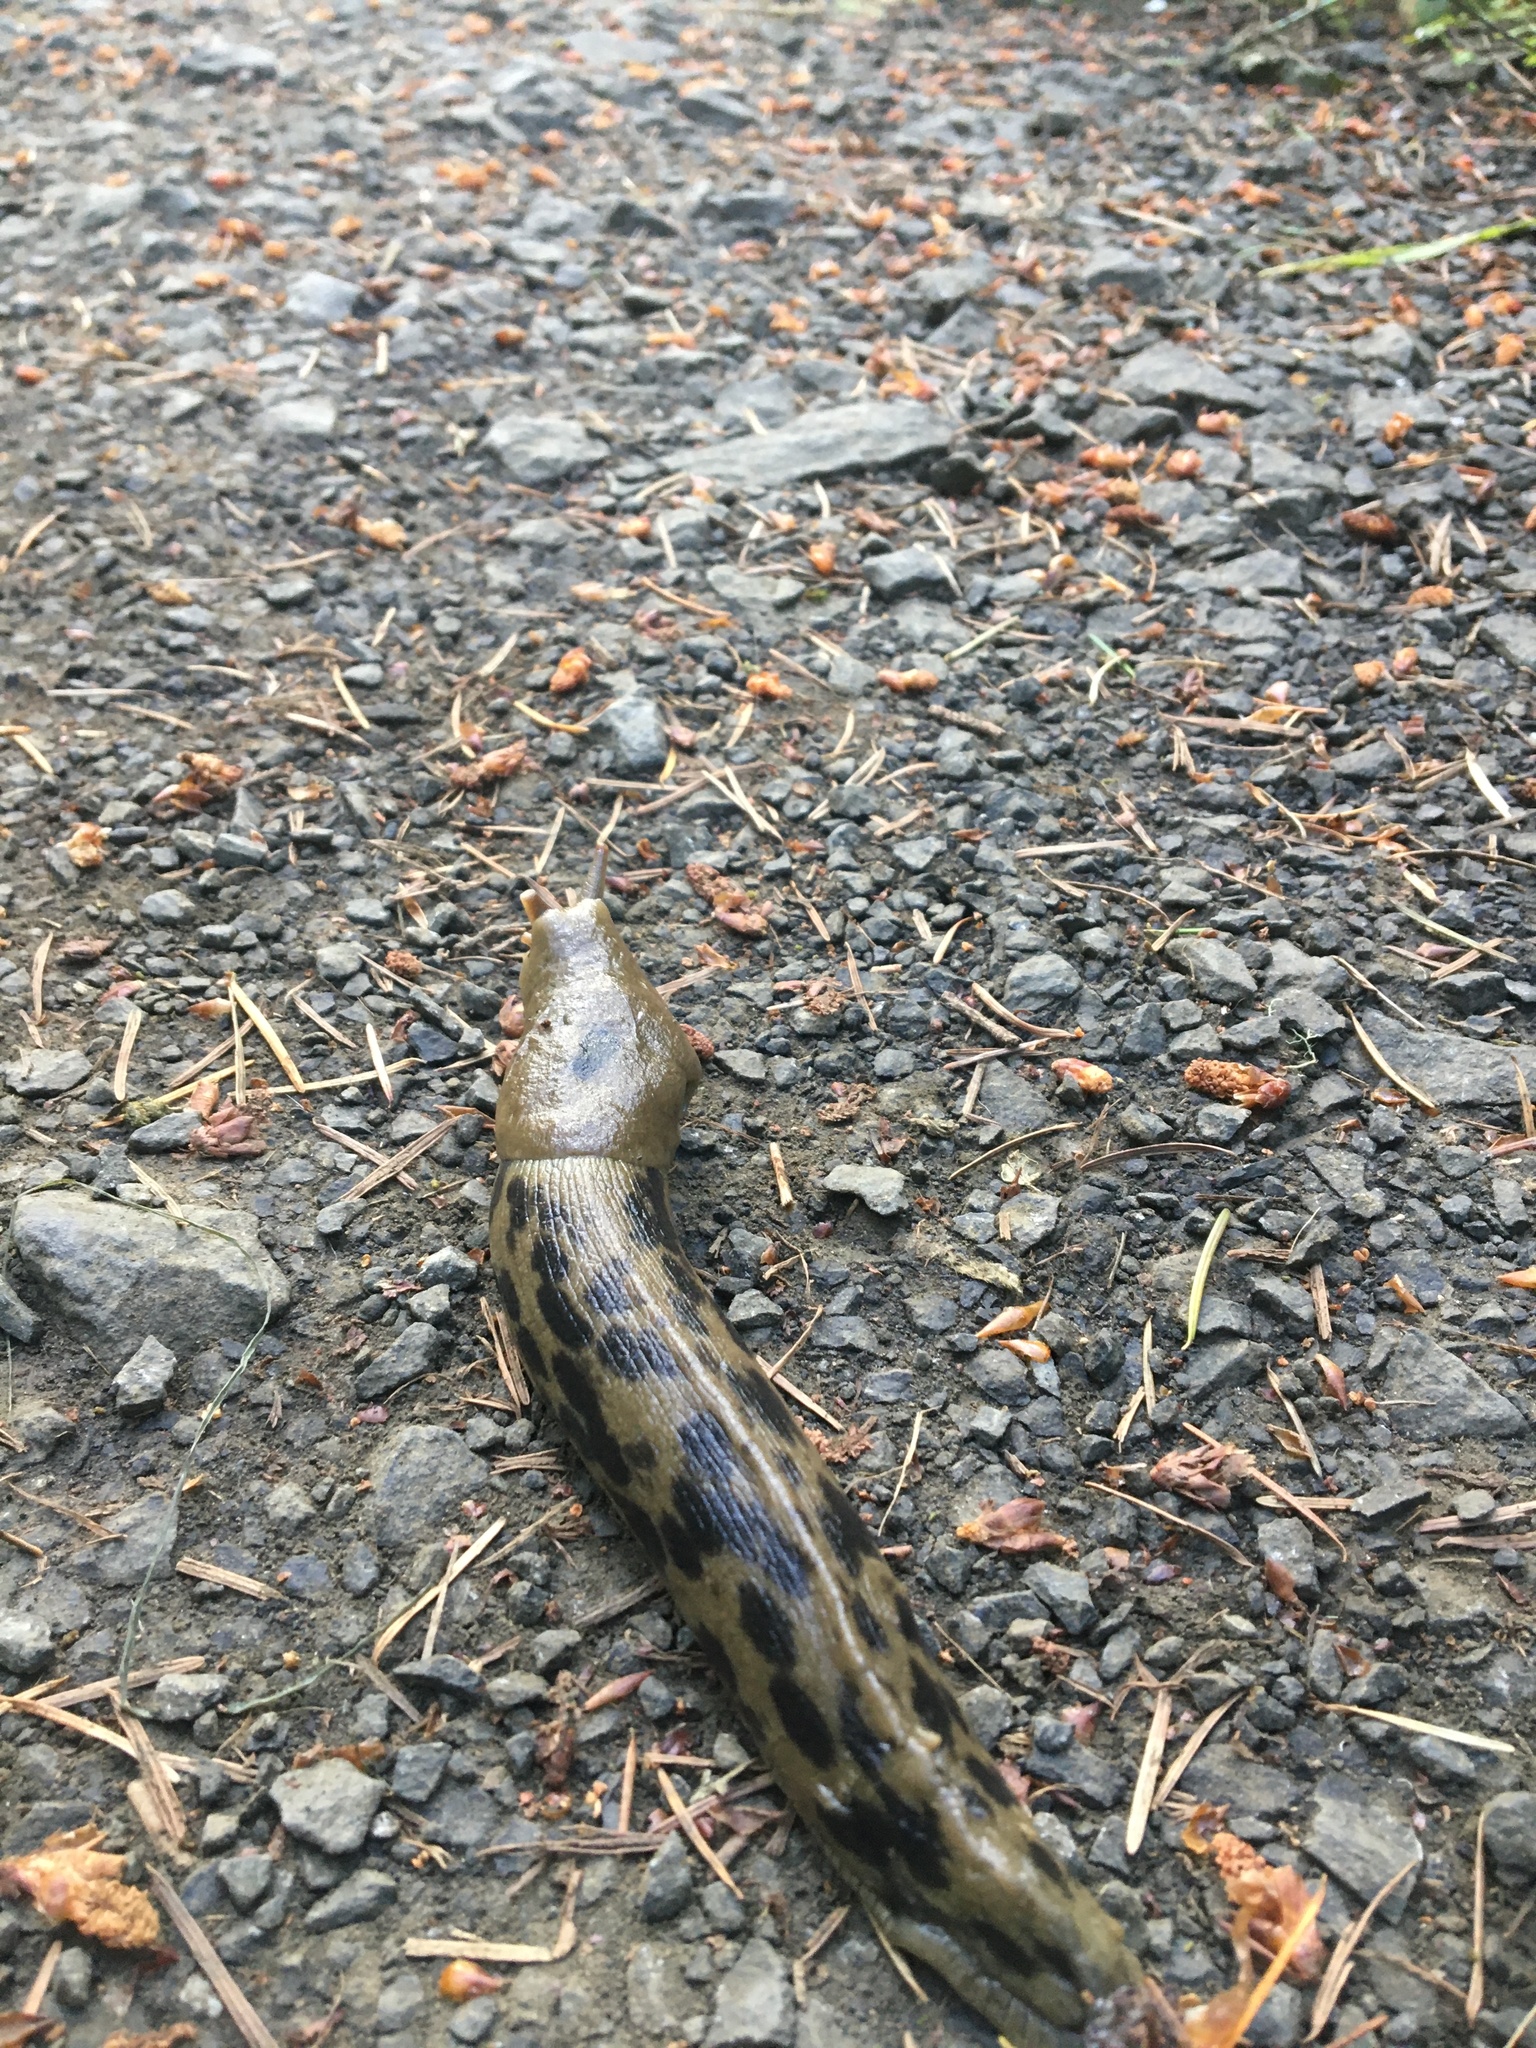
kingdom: Animalia
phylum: Mollusca
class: Gastropoda
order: Stylommatophora
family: Ariolimacidae
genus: Ariolimax
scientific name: Ariolimax columbianus
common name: Pacific banana slug
